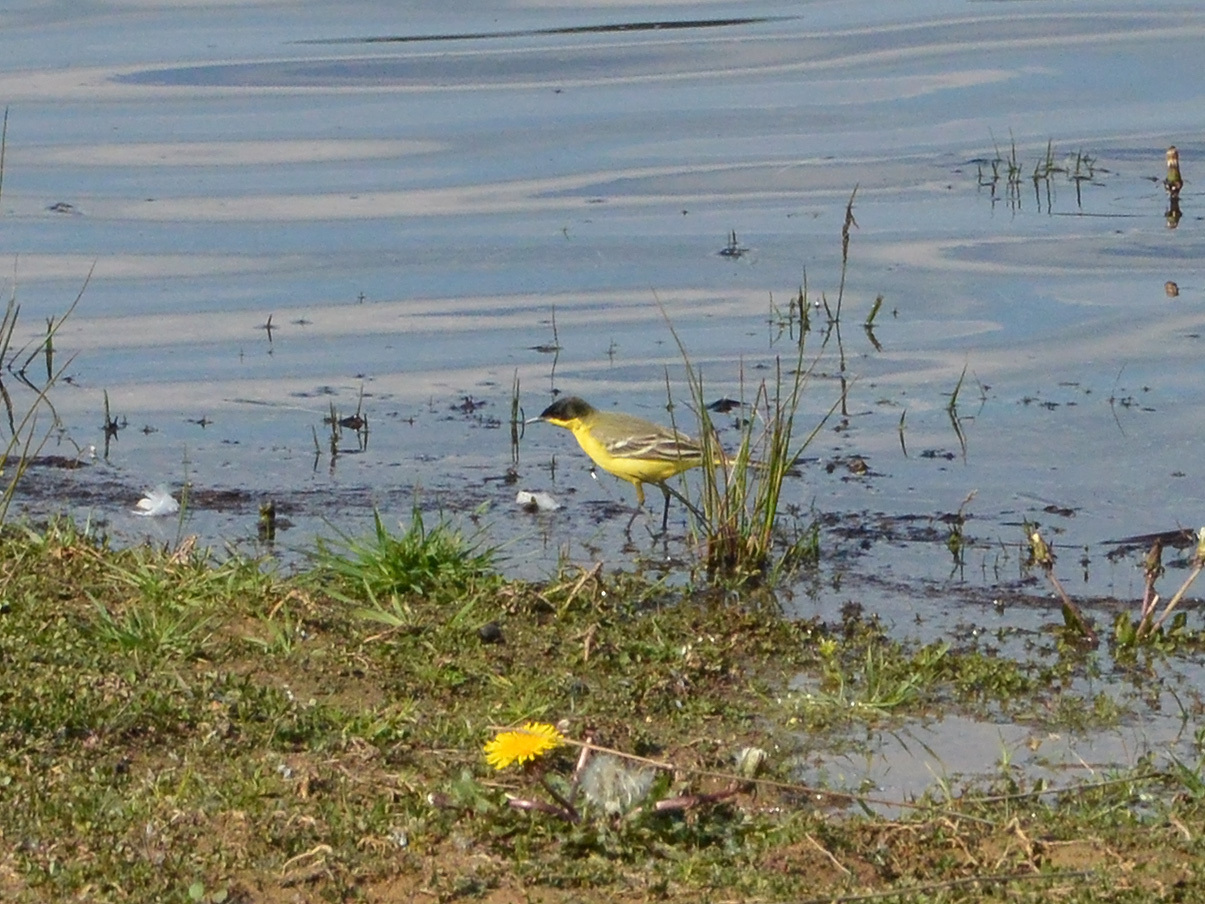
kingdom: Animalia
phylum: Chordata
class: Aves
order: Passeriformes
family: Motacillidae
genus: Motacilla
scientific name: Motacilla flava
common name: Western yellow wagtail
